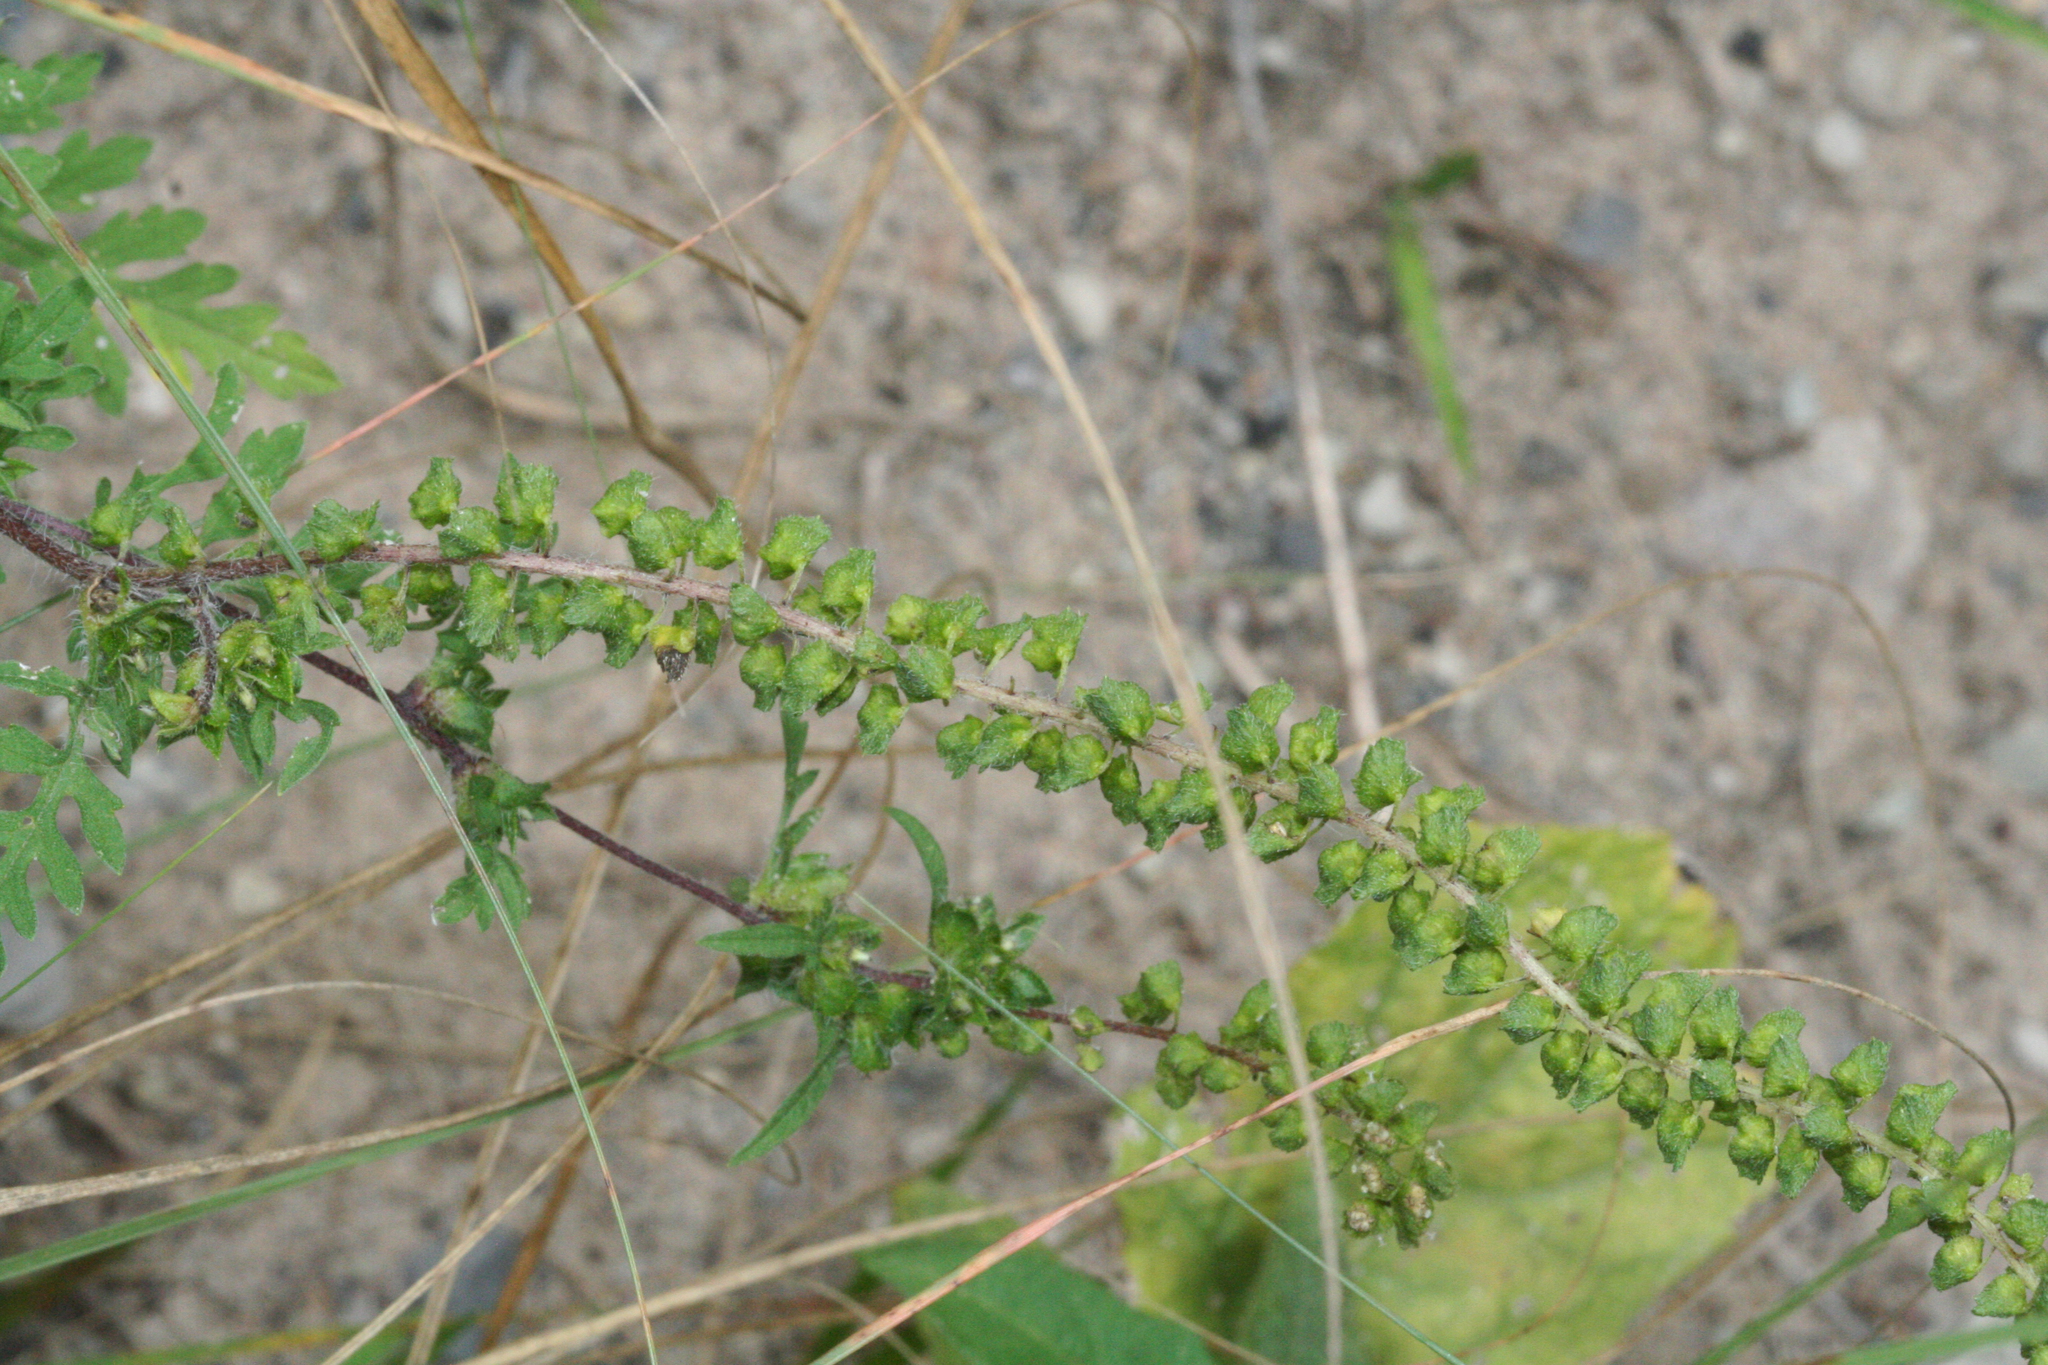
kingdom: Plantae
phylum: Tracheophyta
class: Magnoliopsida
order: Asterales
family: Asteraceae
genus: Ambrosia
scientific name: Ambrosia artemisiifolia
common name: Annual ragweed
